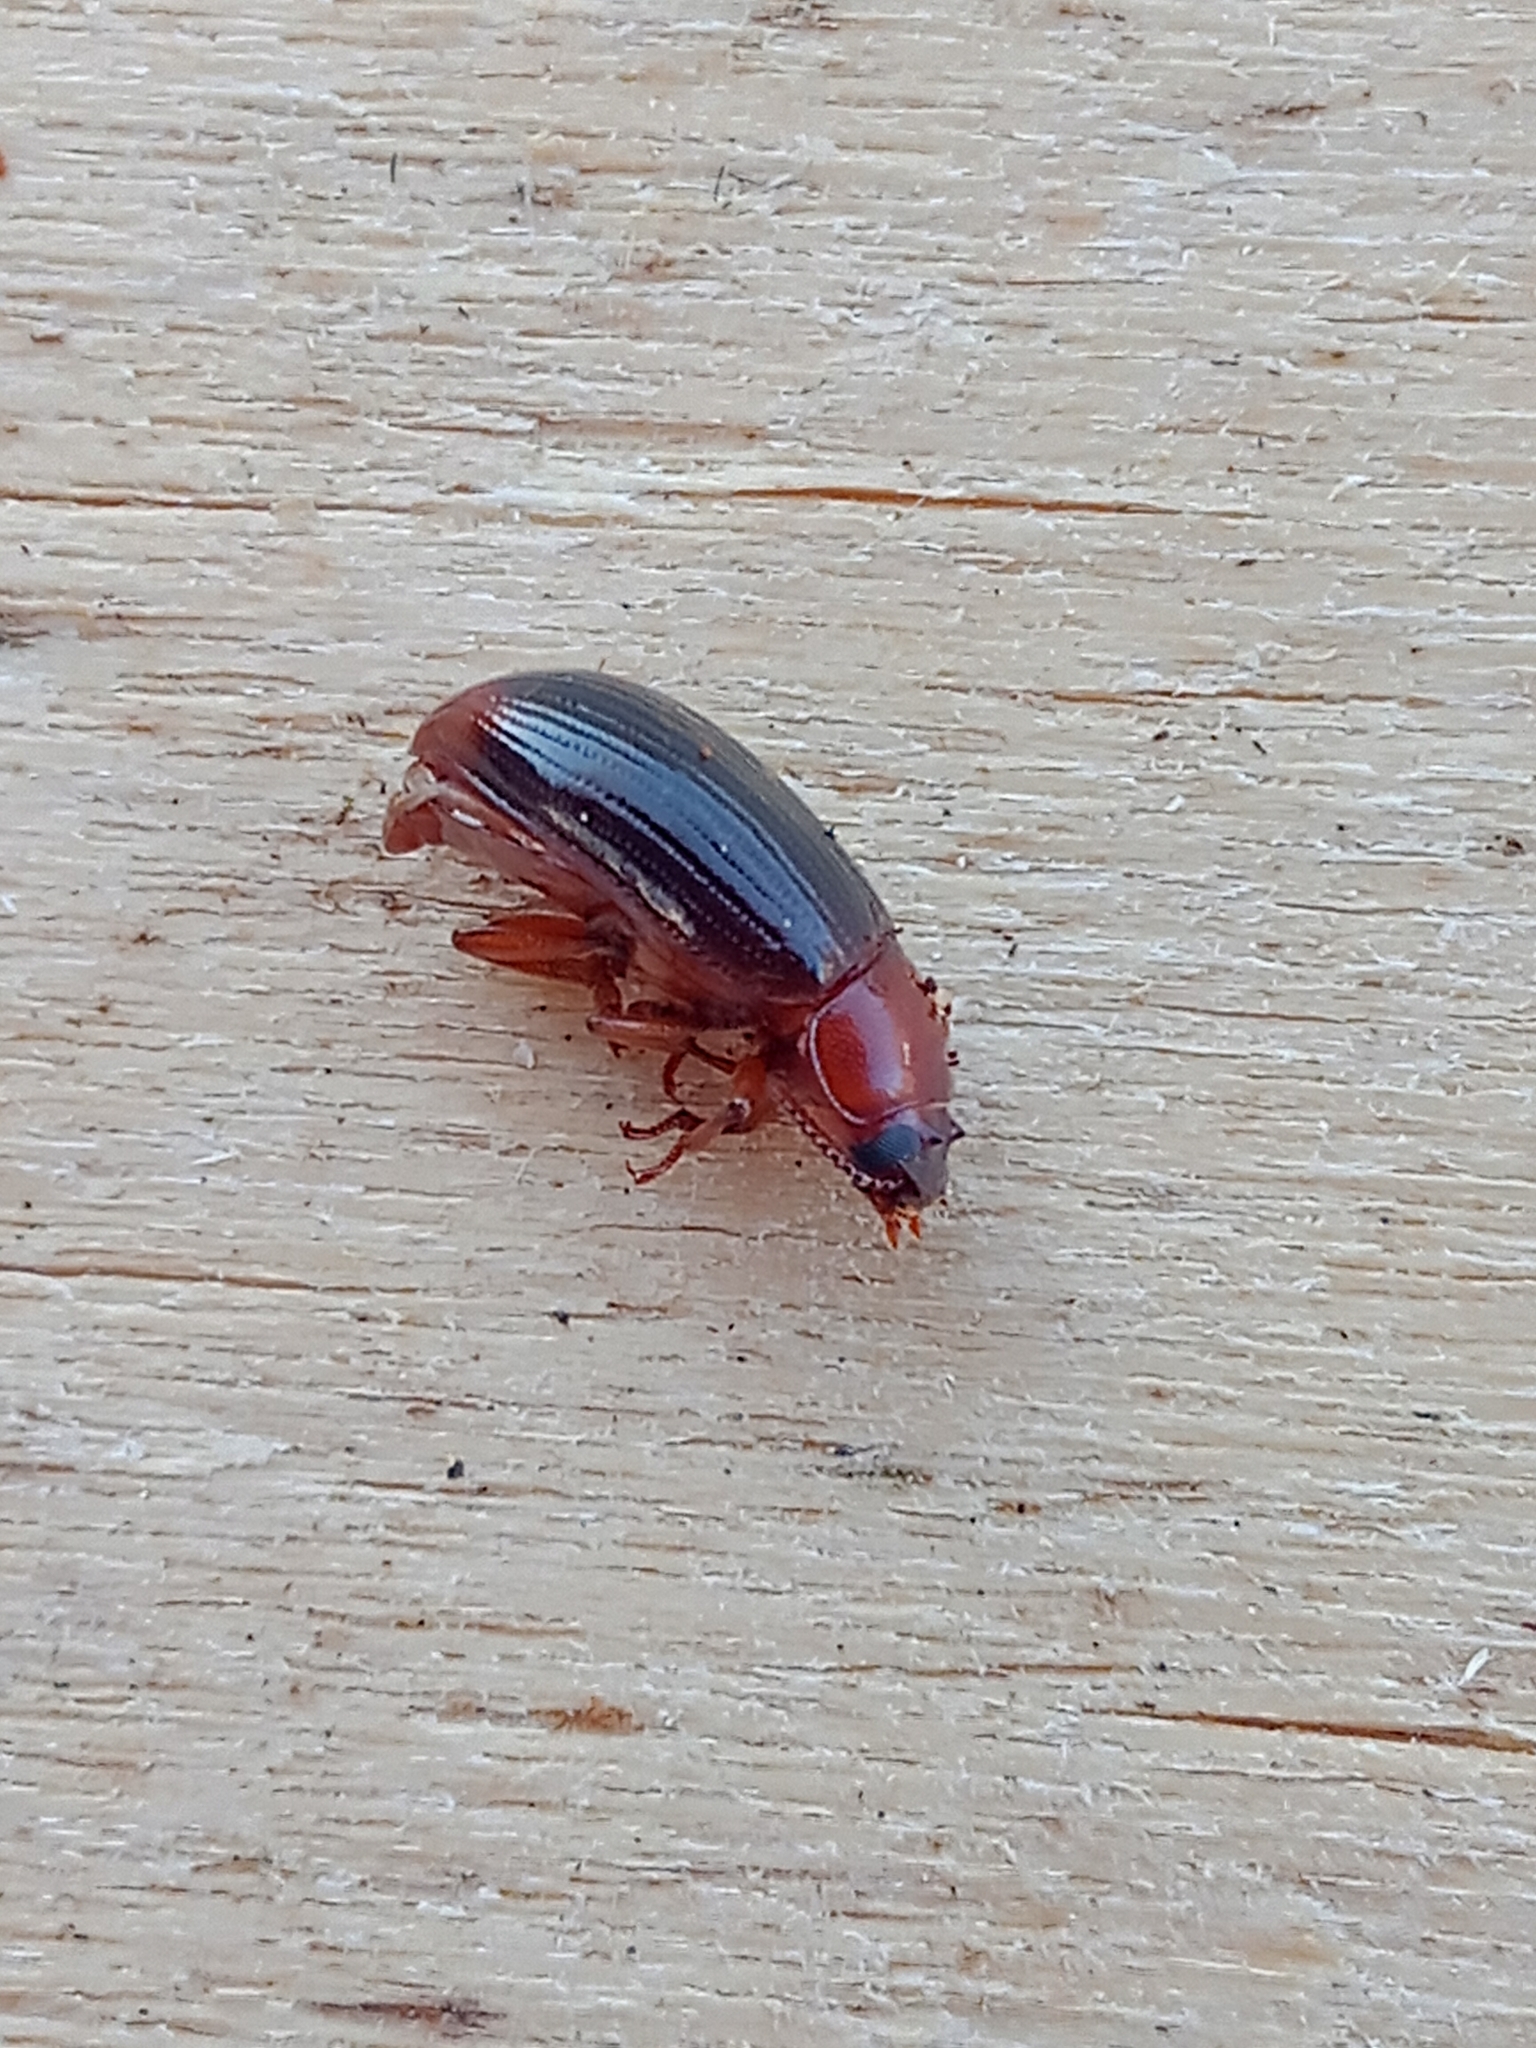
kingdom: Animalia
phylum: Arthropoda
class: Insecta
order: Coleoptera
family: Tenebrionidae
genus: Neomida
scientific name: Neomida haemorrhoidalis
